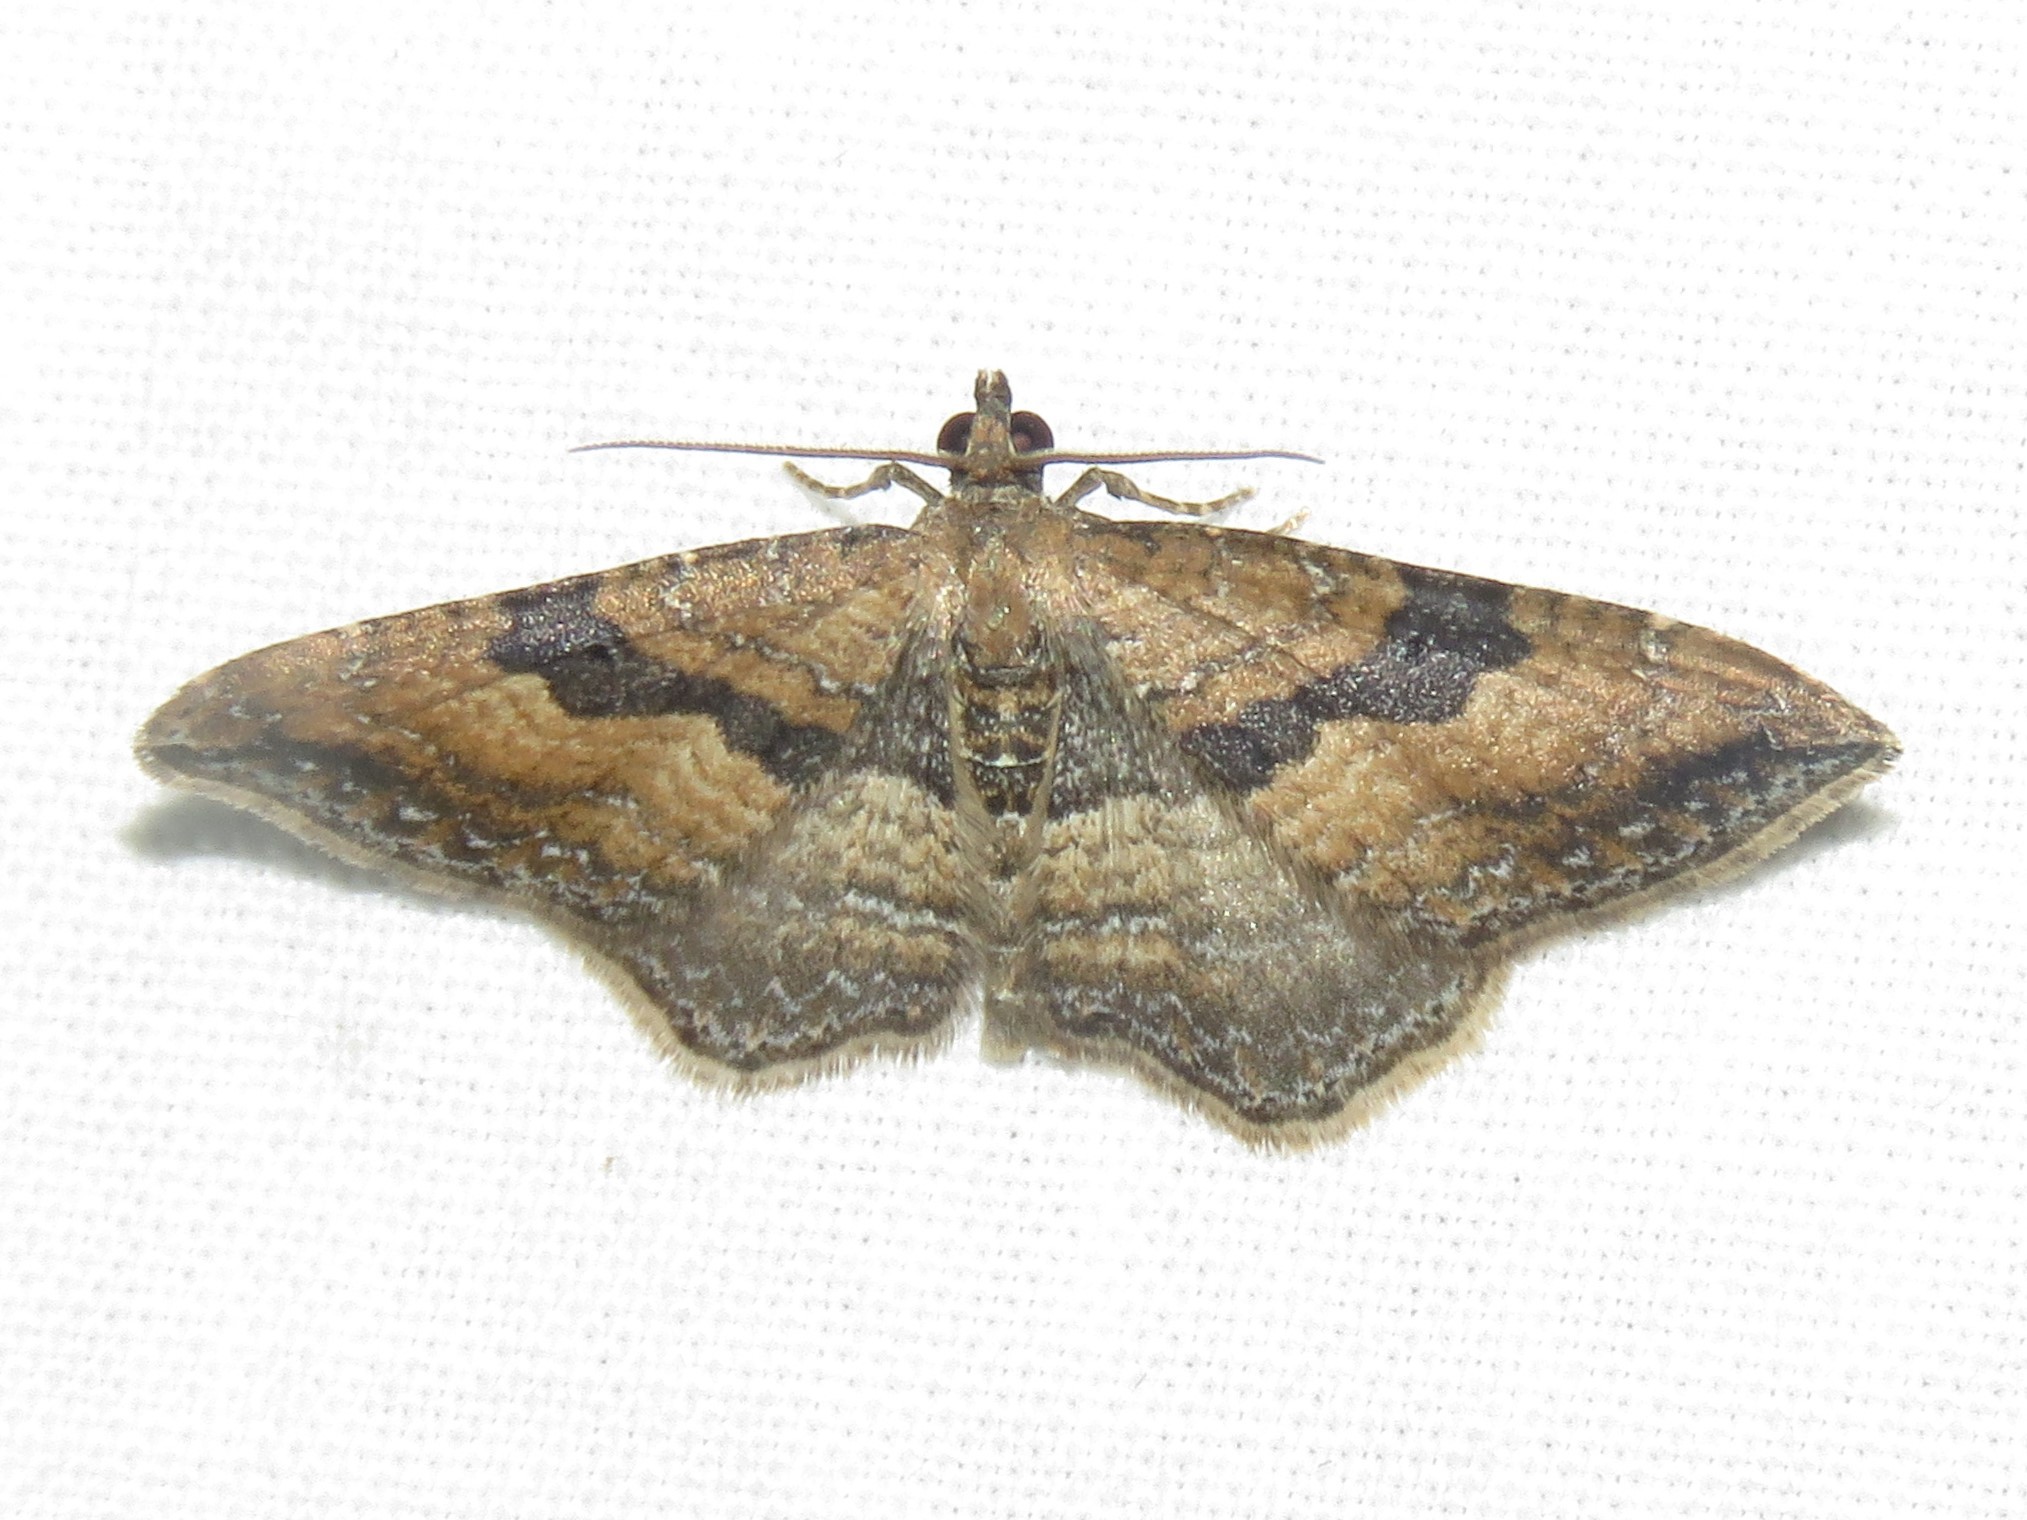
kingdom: Animalia
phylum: Arthropoda
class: Insecta
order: Lepidoptera
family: Geometridae
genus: Orthonama
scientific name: Orthonama obstipata
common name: The gem
